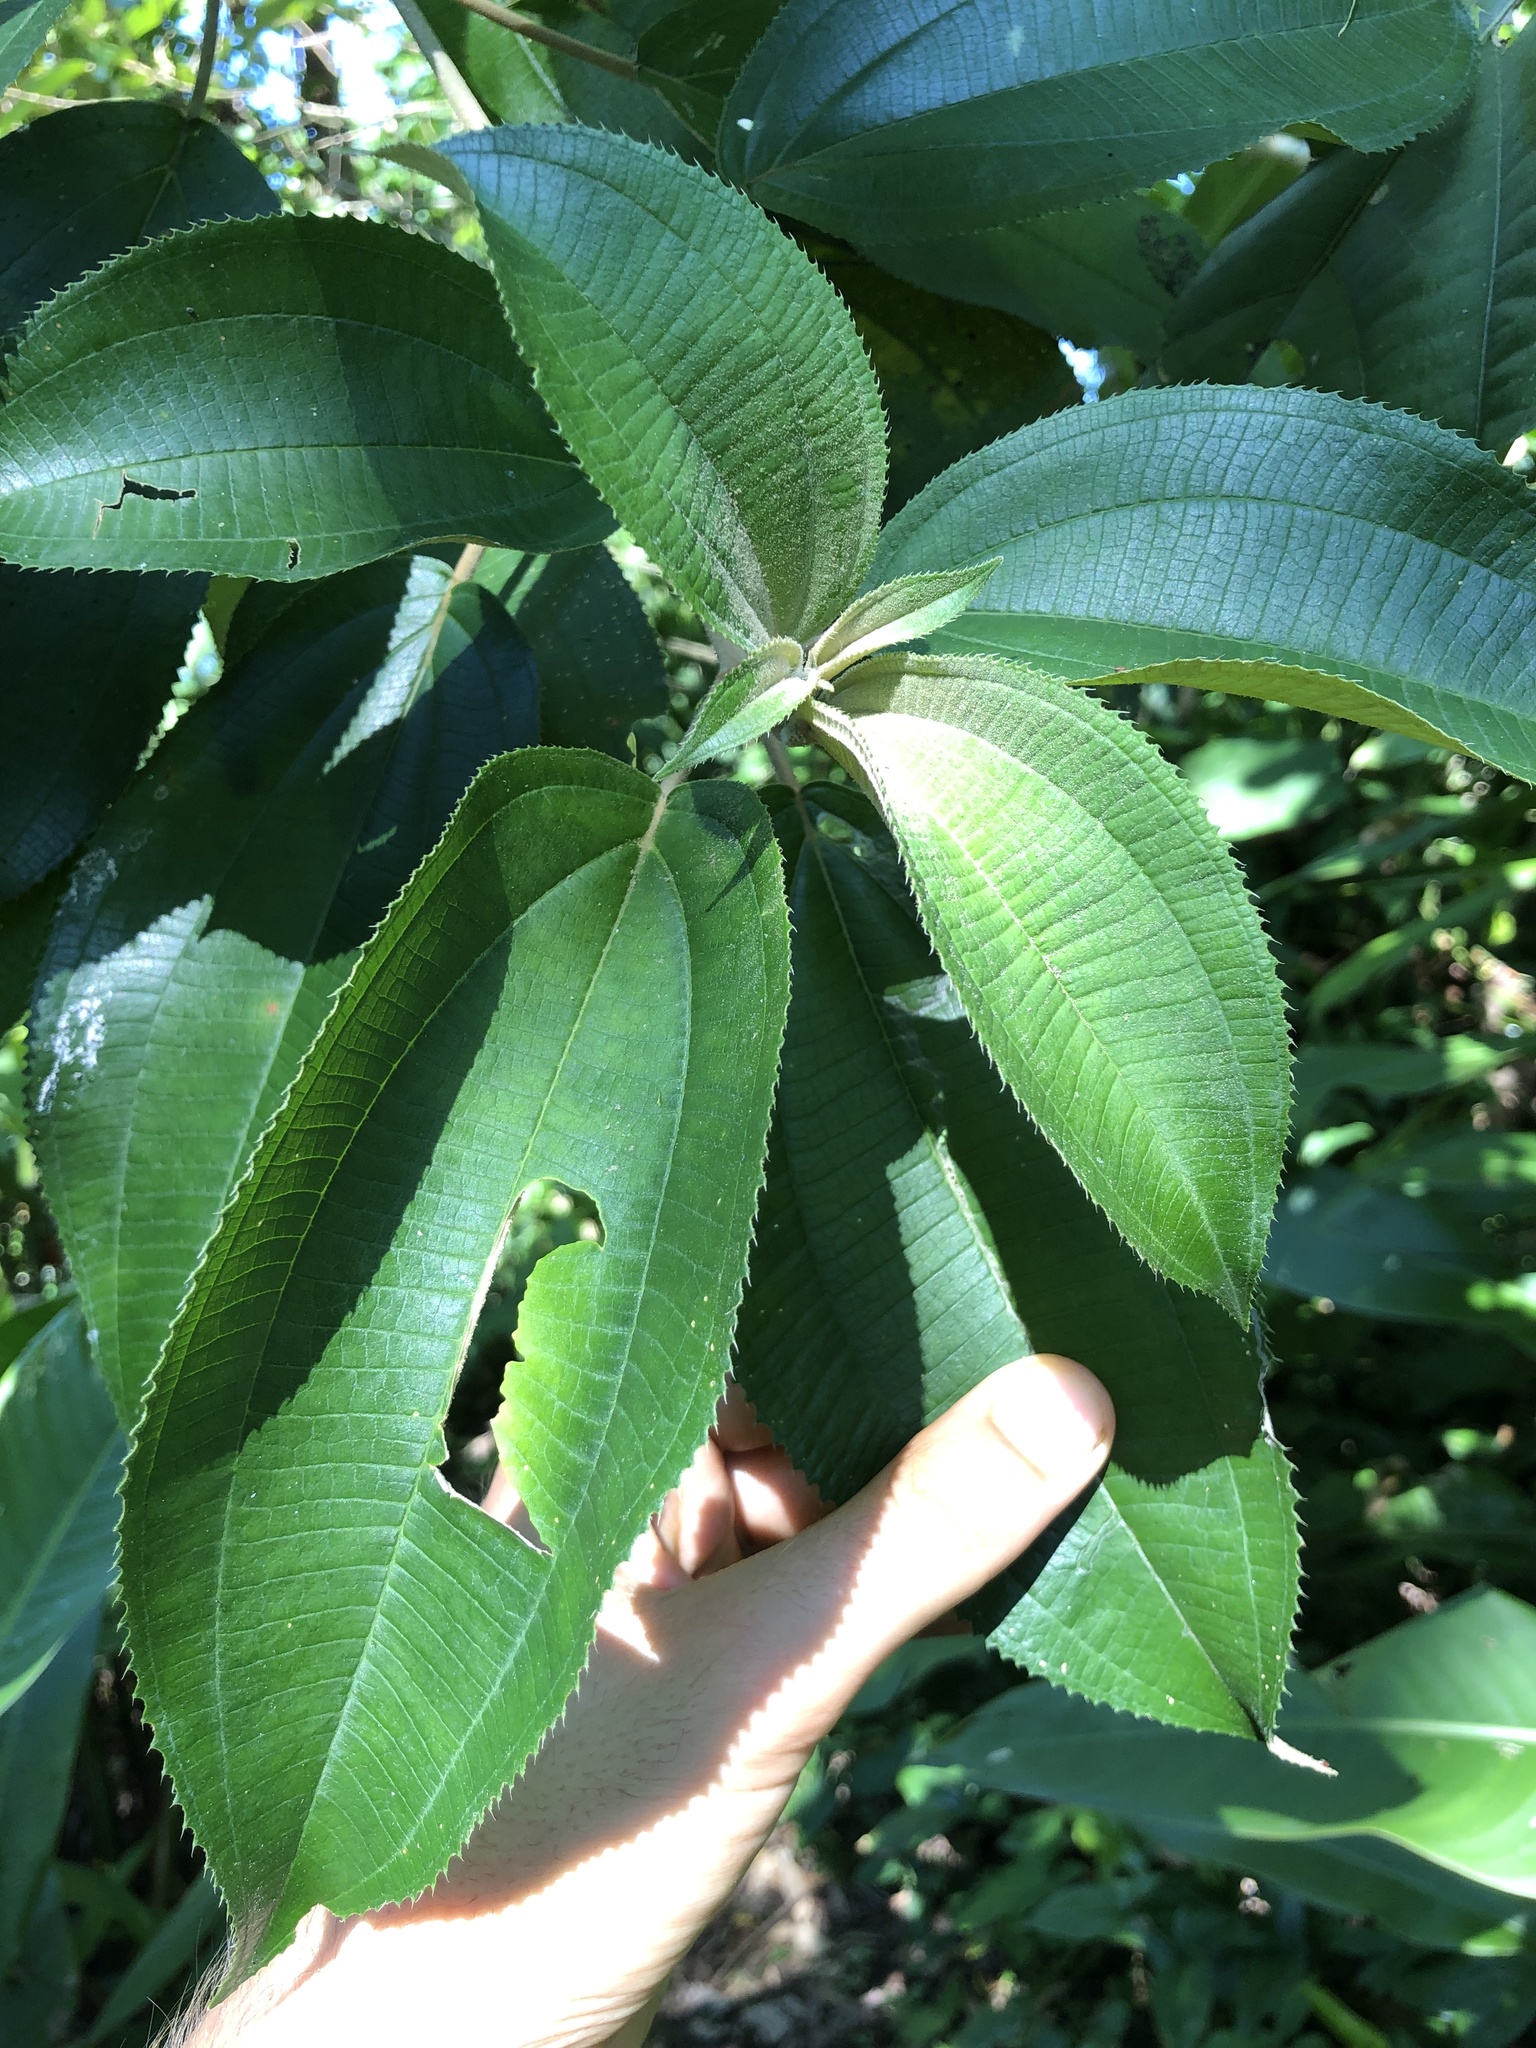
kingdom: Plantae
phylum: Tracheophyta
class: Magnoliopsida
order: Myrtales
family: Melastomataceae
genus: Miconia
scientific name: Miconia xalapensis
